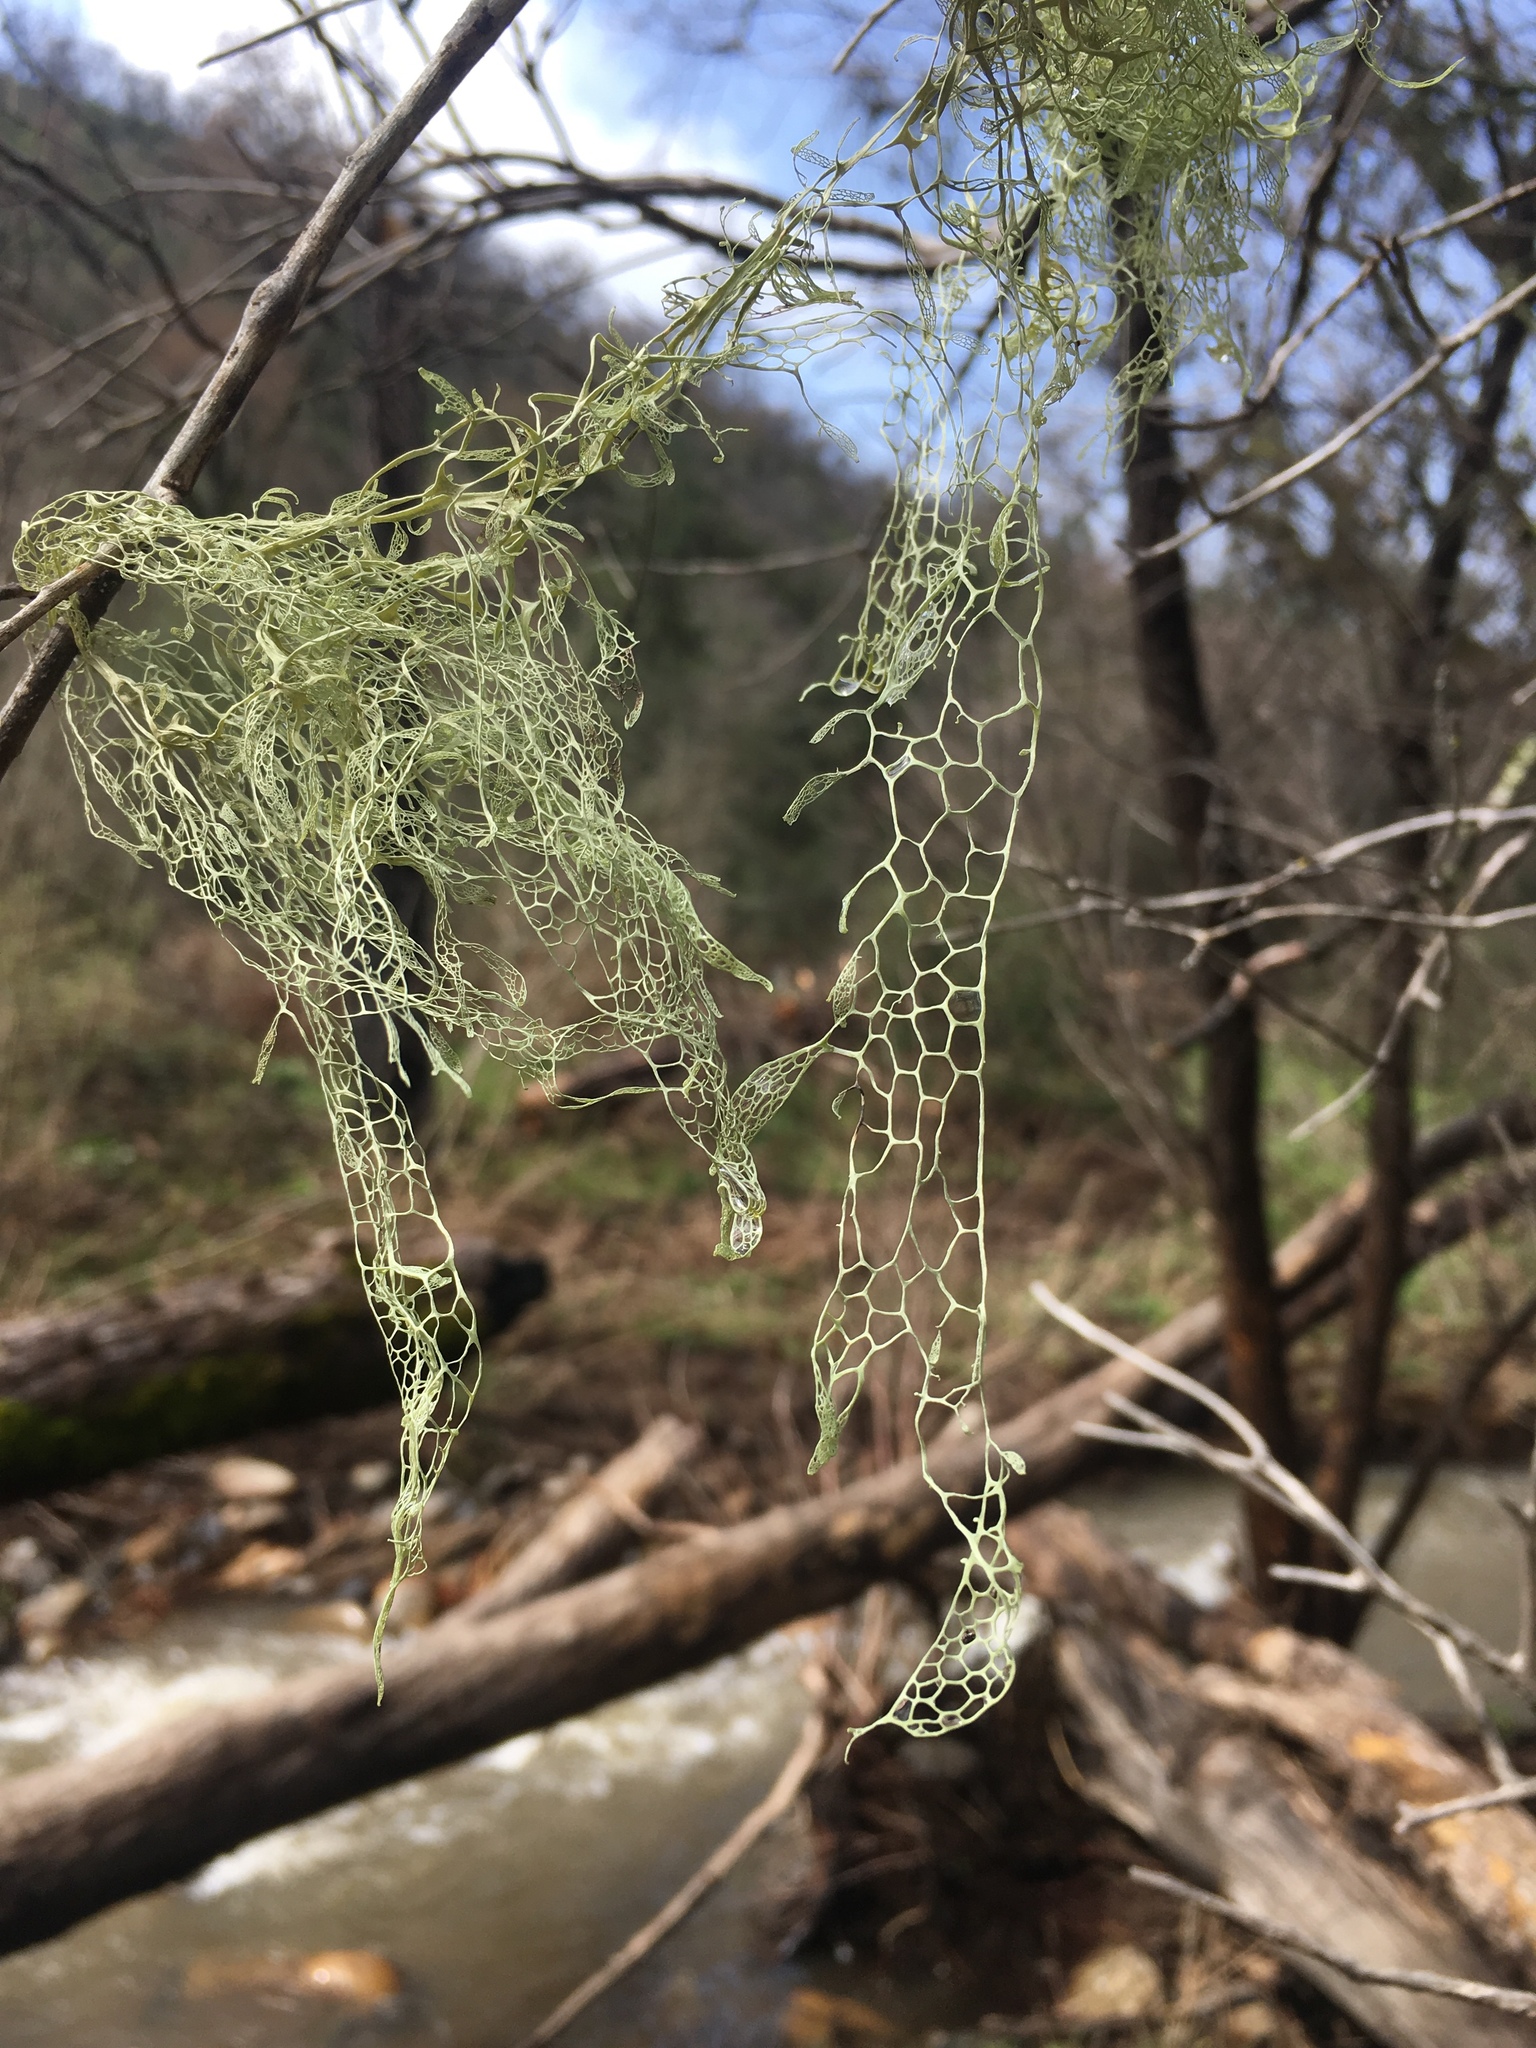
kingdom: Fungi
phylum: Ascomycota
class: Lecanoromycetes
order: Lecanorales
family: Ramalinaceae
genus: Ramalina
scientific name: Ramalina menziesii
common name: Lace lichen
